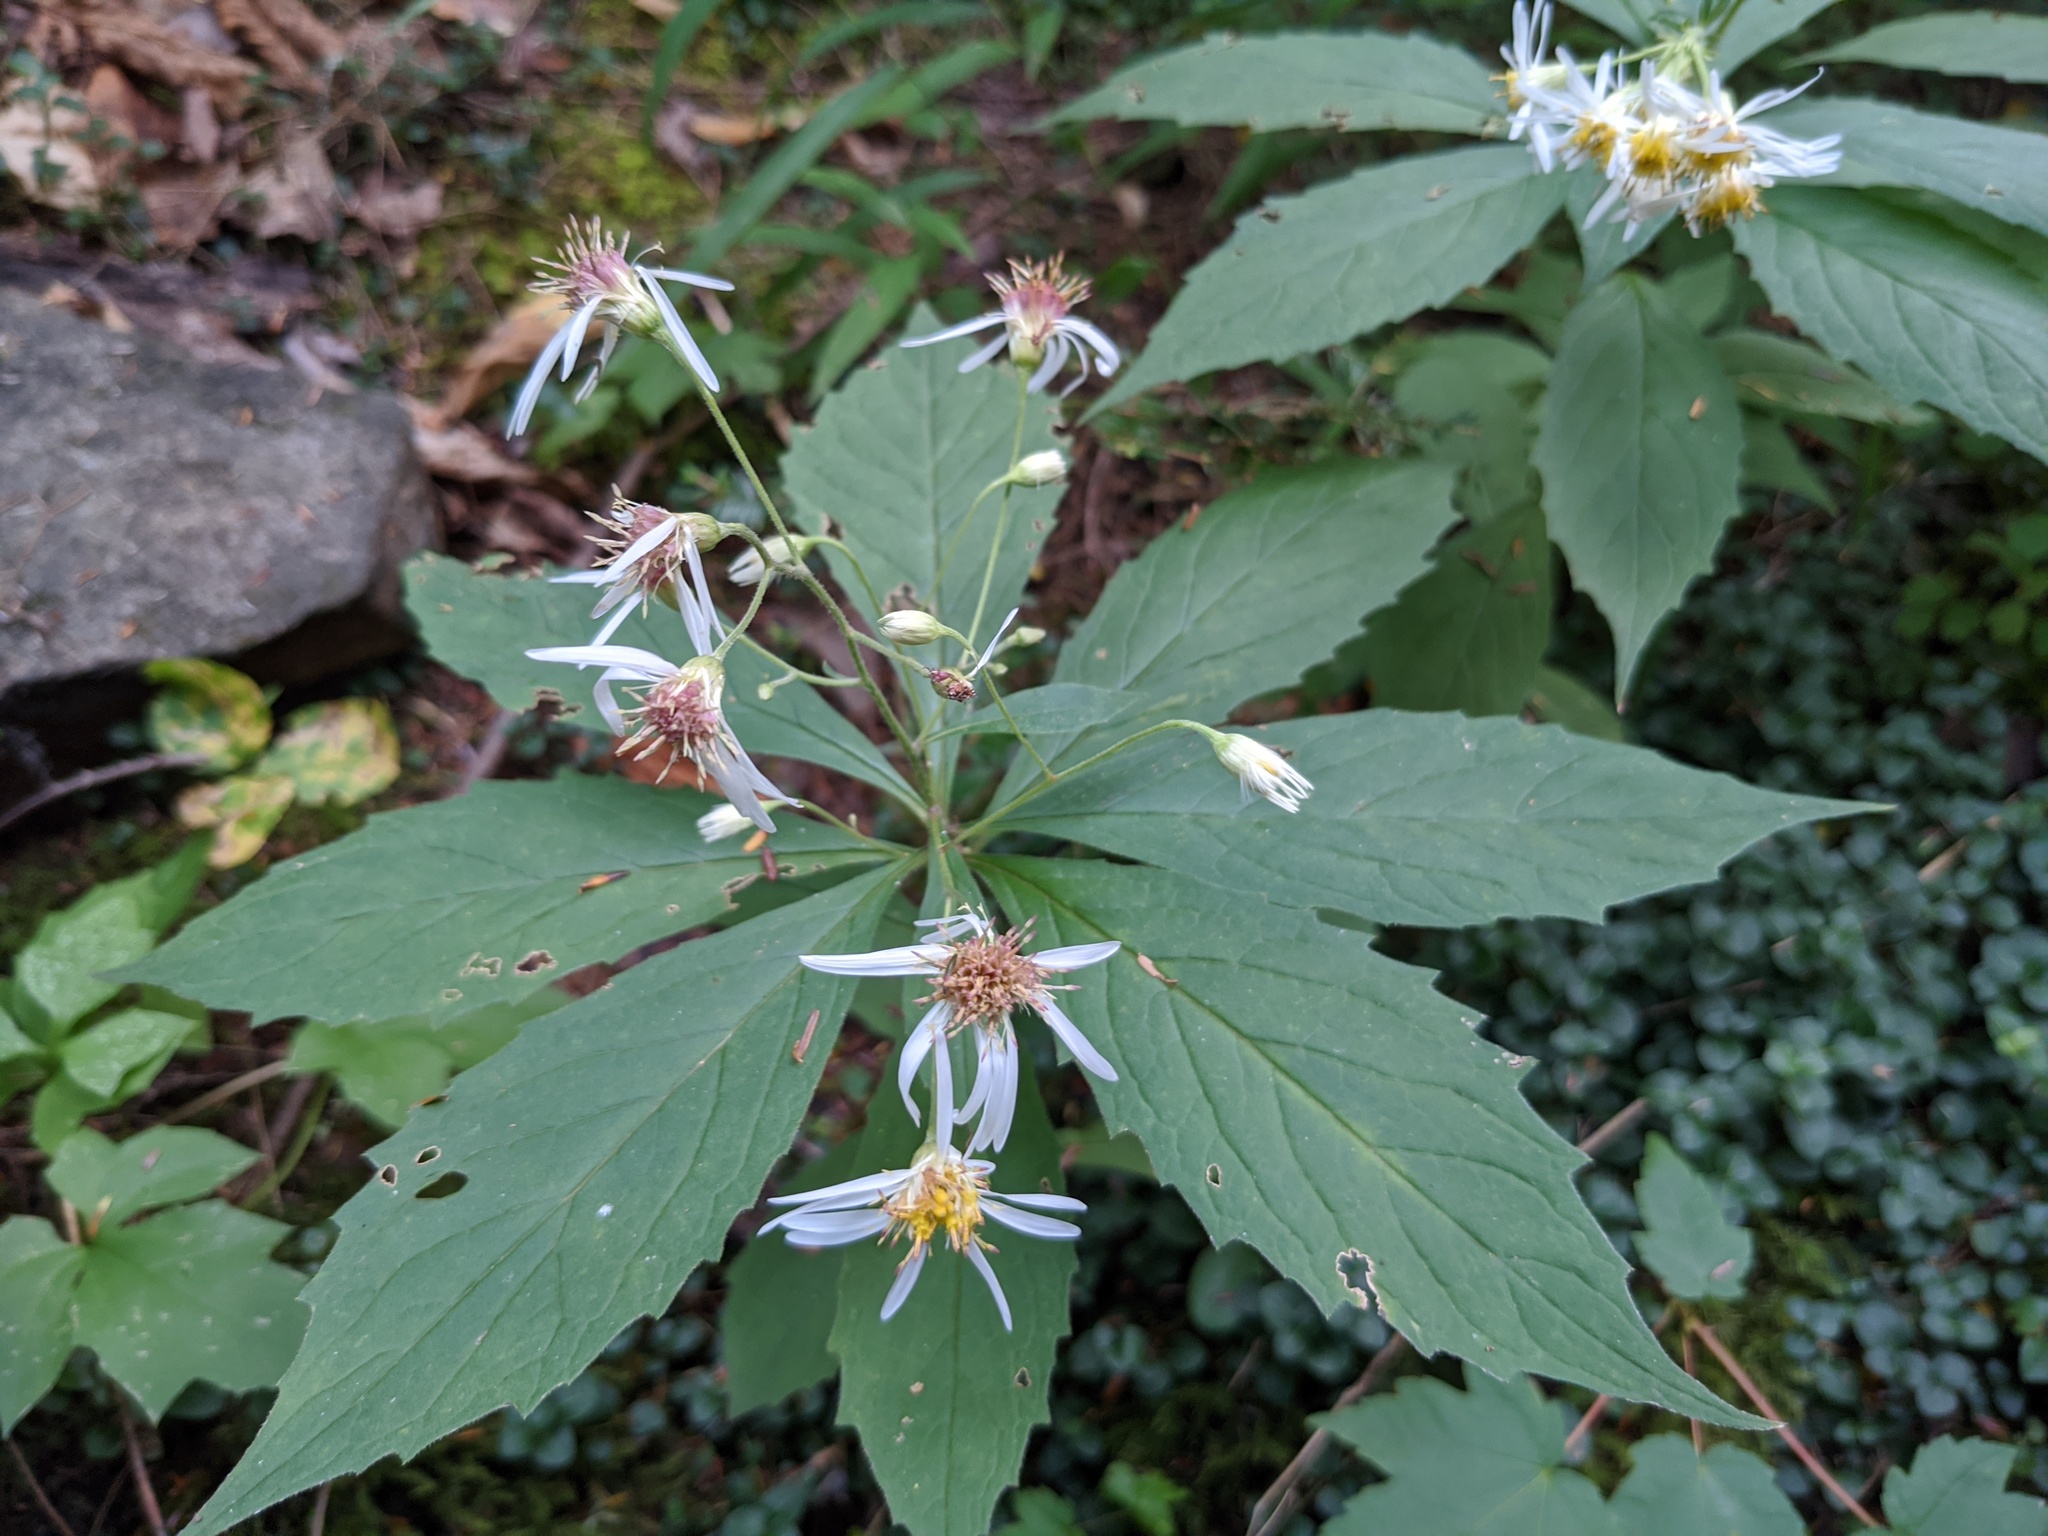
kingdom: Plantae
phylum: Tracheophyta
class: Magnoliopsida
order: Asterales
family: Asteraceae
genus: Oclemena
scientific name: Oclemena acuminata
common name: Mountain aster
